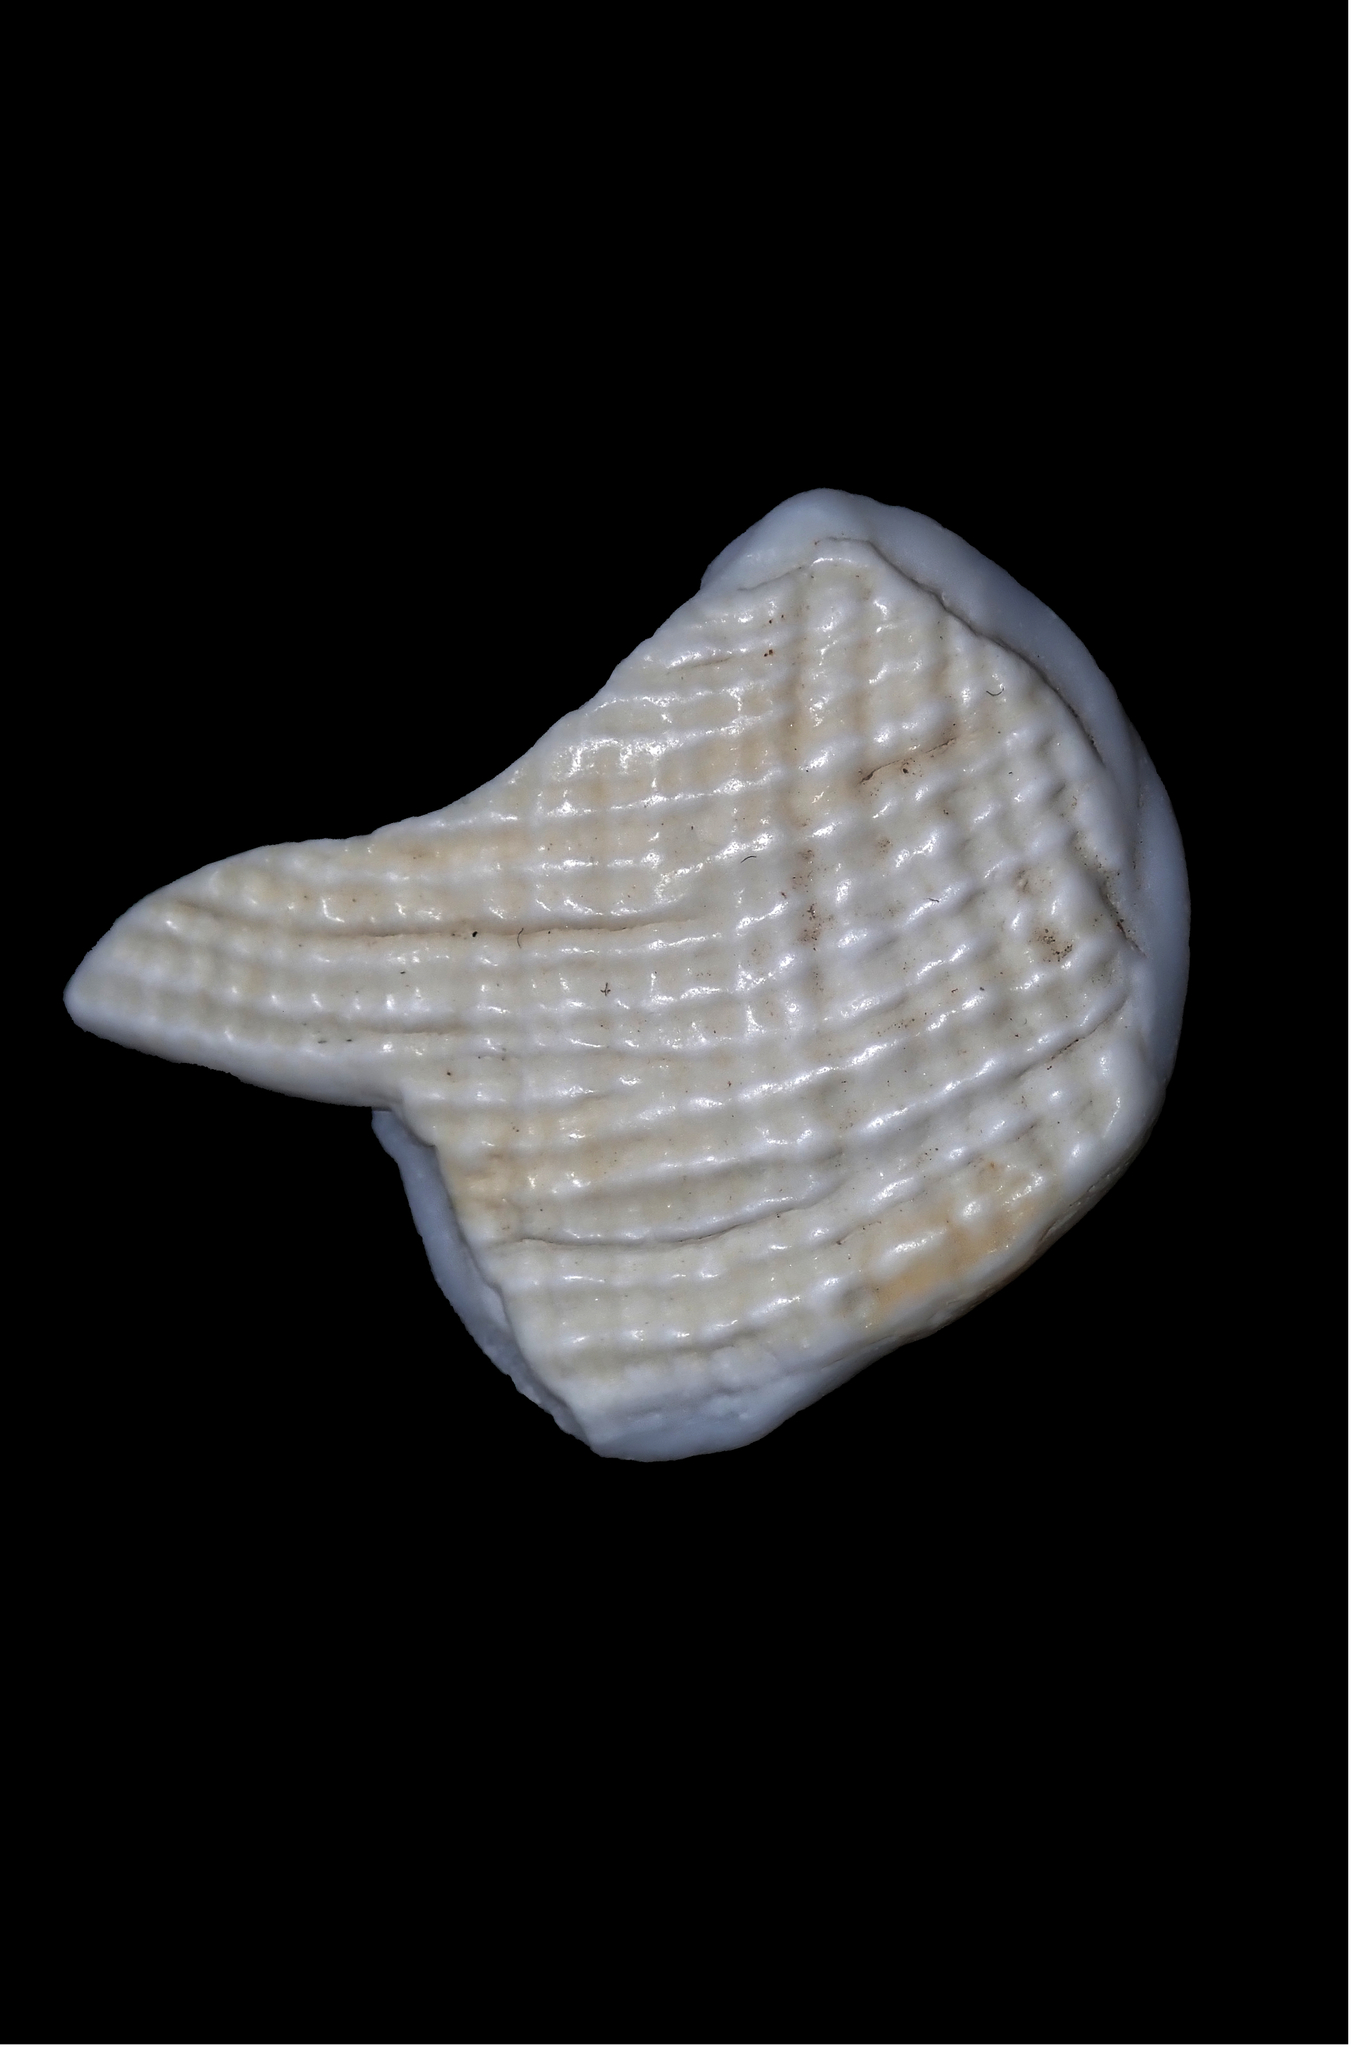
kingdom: Animalia
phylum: Mollusca
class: Bivalvia
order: Lucinida
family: Lucinidae
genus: Codakia
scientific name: Codakia rugifera
